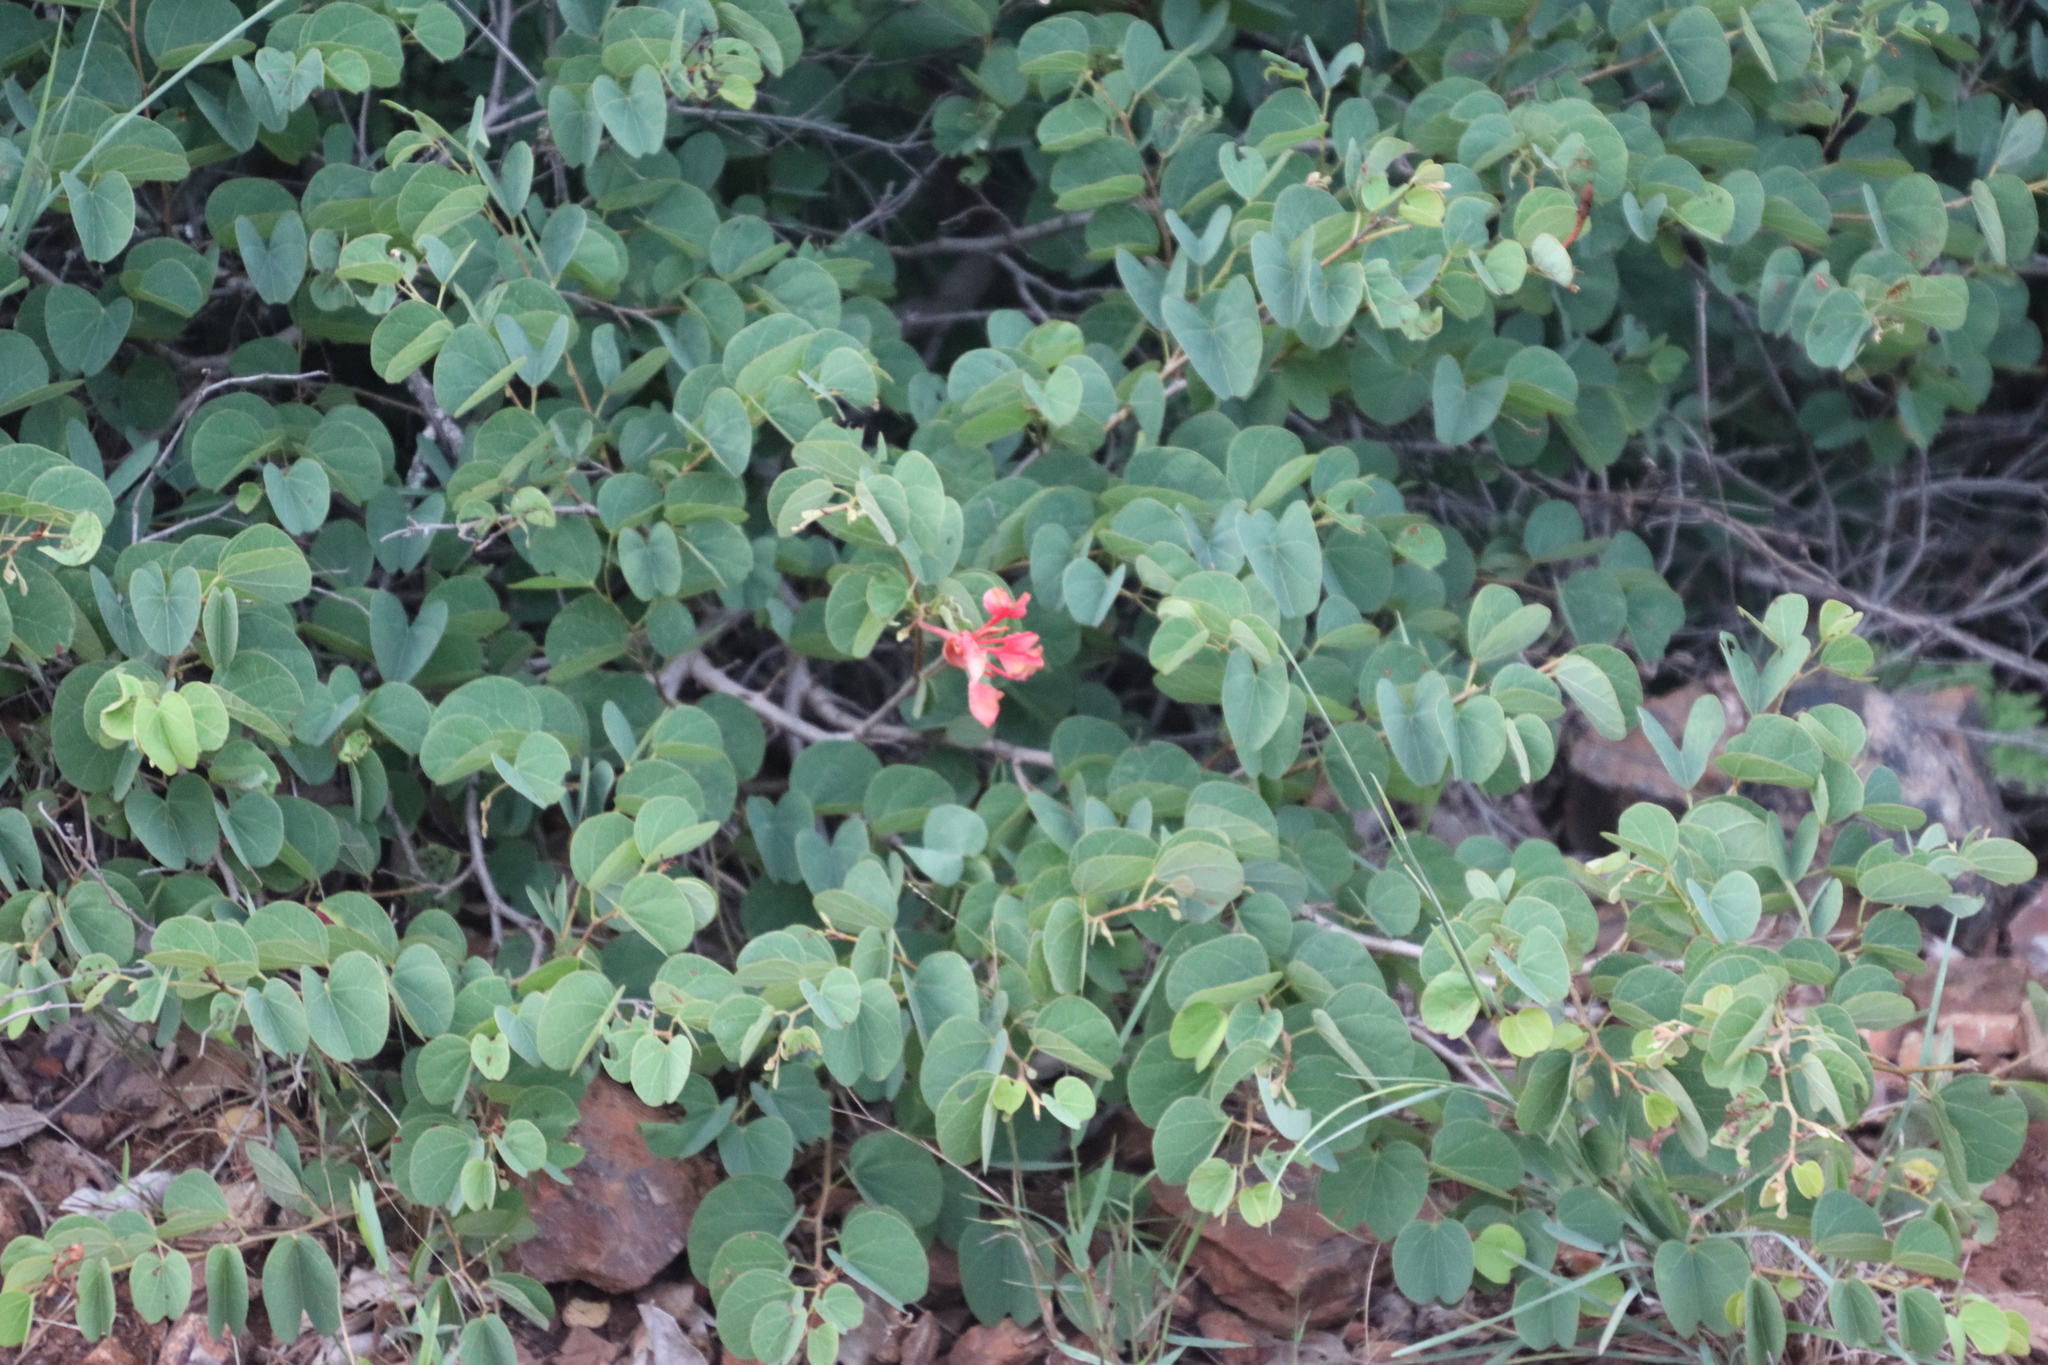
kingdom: Plantae
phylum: Tracheophyta
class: Magnoliopsida
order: Fabales
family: Fabaceae
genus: Bauhinia
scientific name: Bauhinia galpinii
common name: African plume
